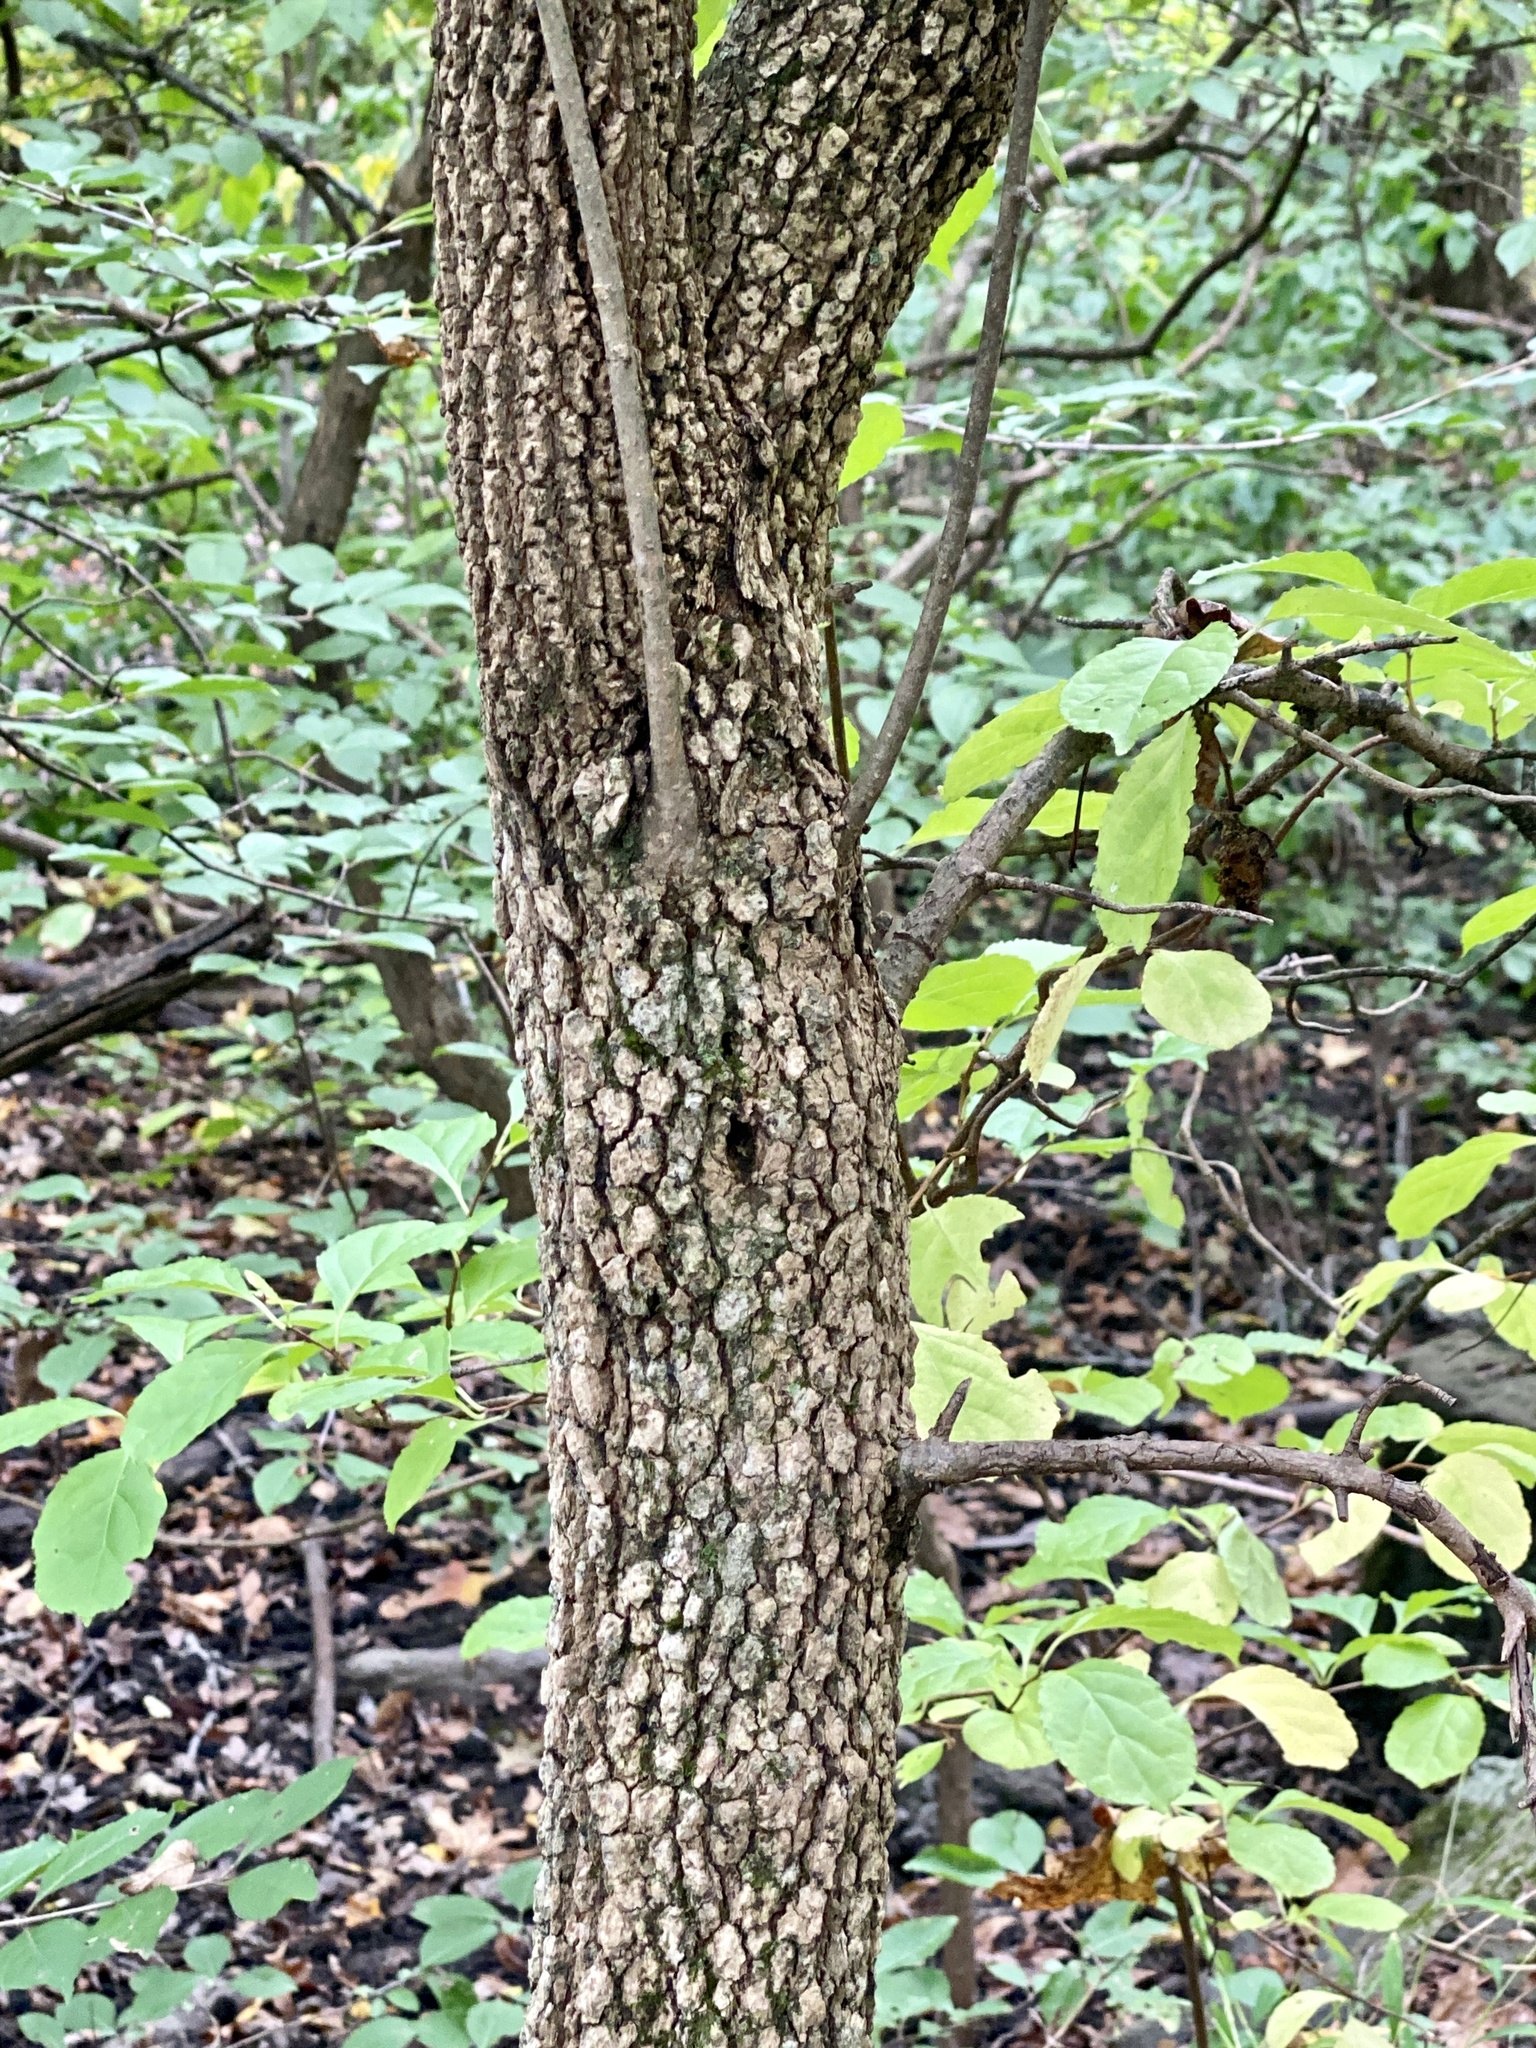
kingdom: Plantae
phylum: Tracheophyta
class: Magnoliopsida
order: Dipsacales
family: Viburnaceae
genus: Viburnum
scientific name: Viburnum prunifolium
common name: Black haw
